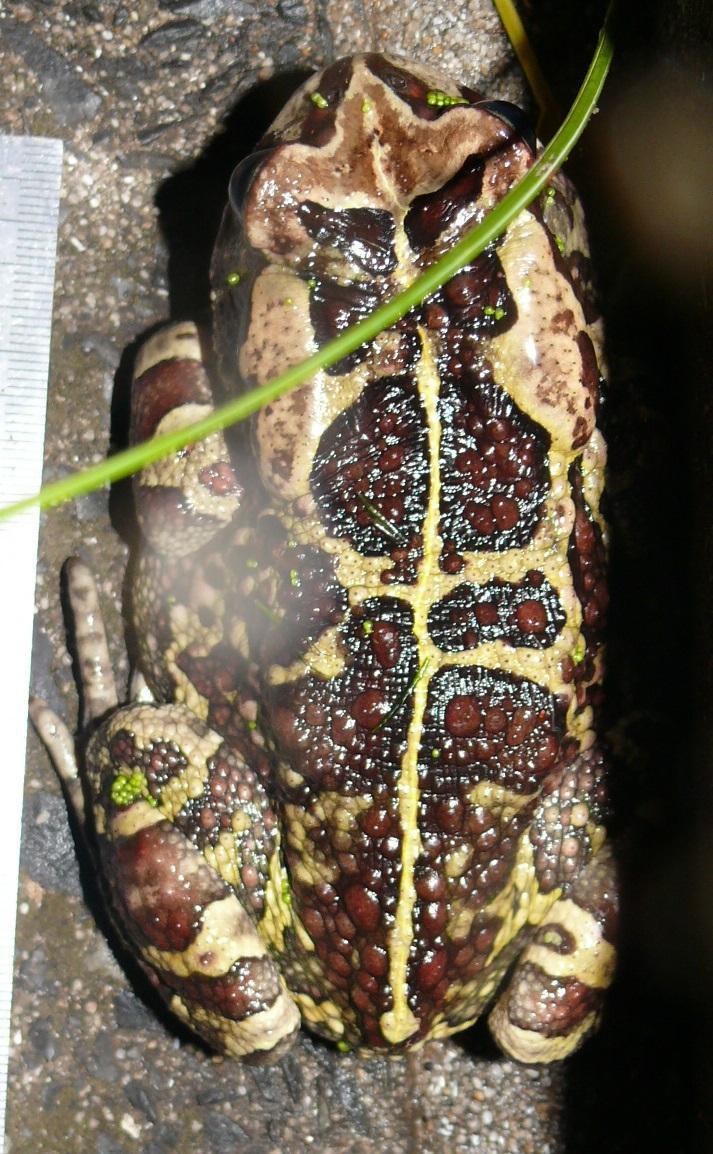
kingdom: Animalia
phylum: Chordata
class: Amphibia
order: Anura
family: Bufonidae
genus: Sclerophrys
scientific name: Sclerophrys pantherina
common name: Panther toad
